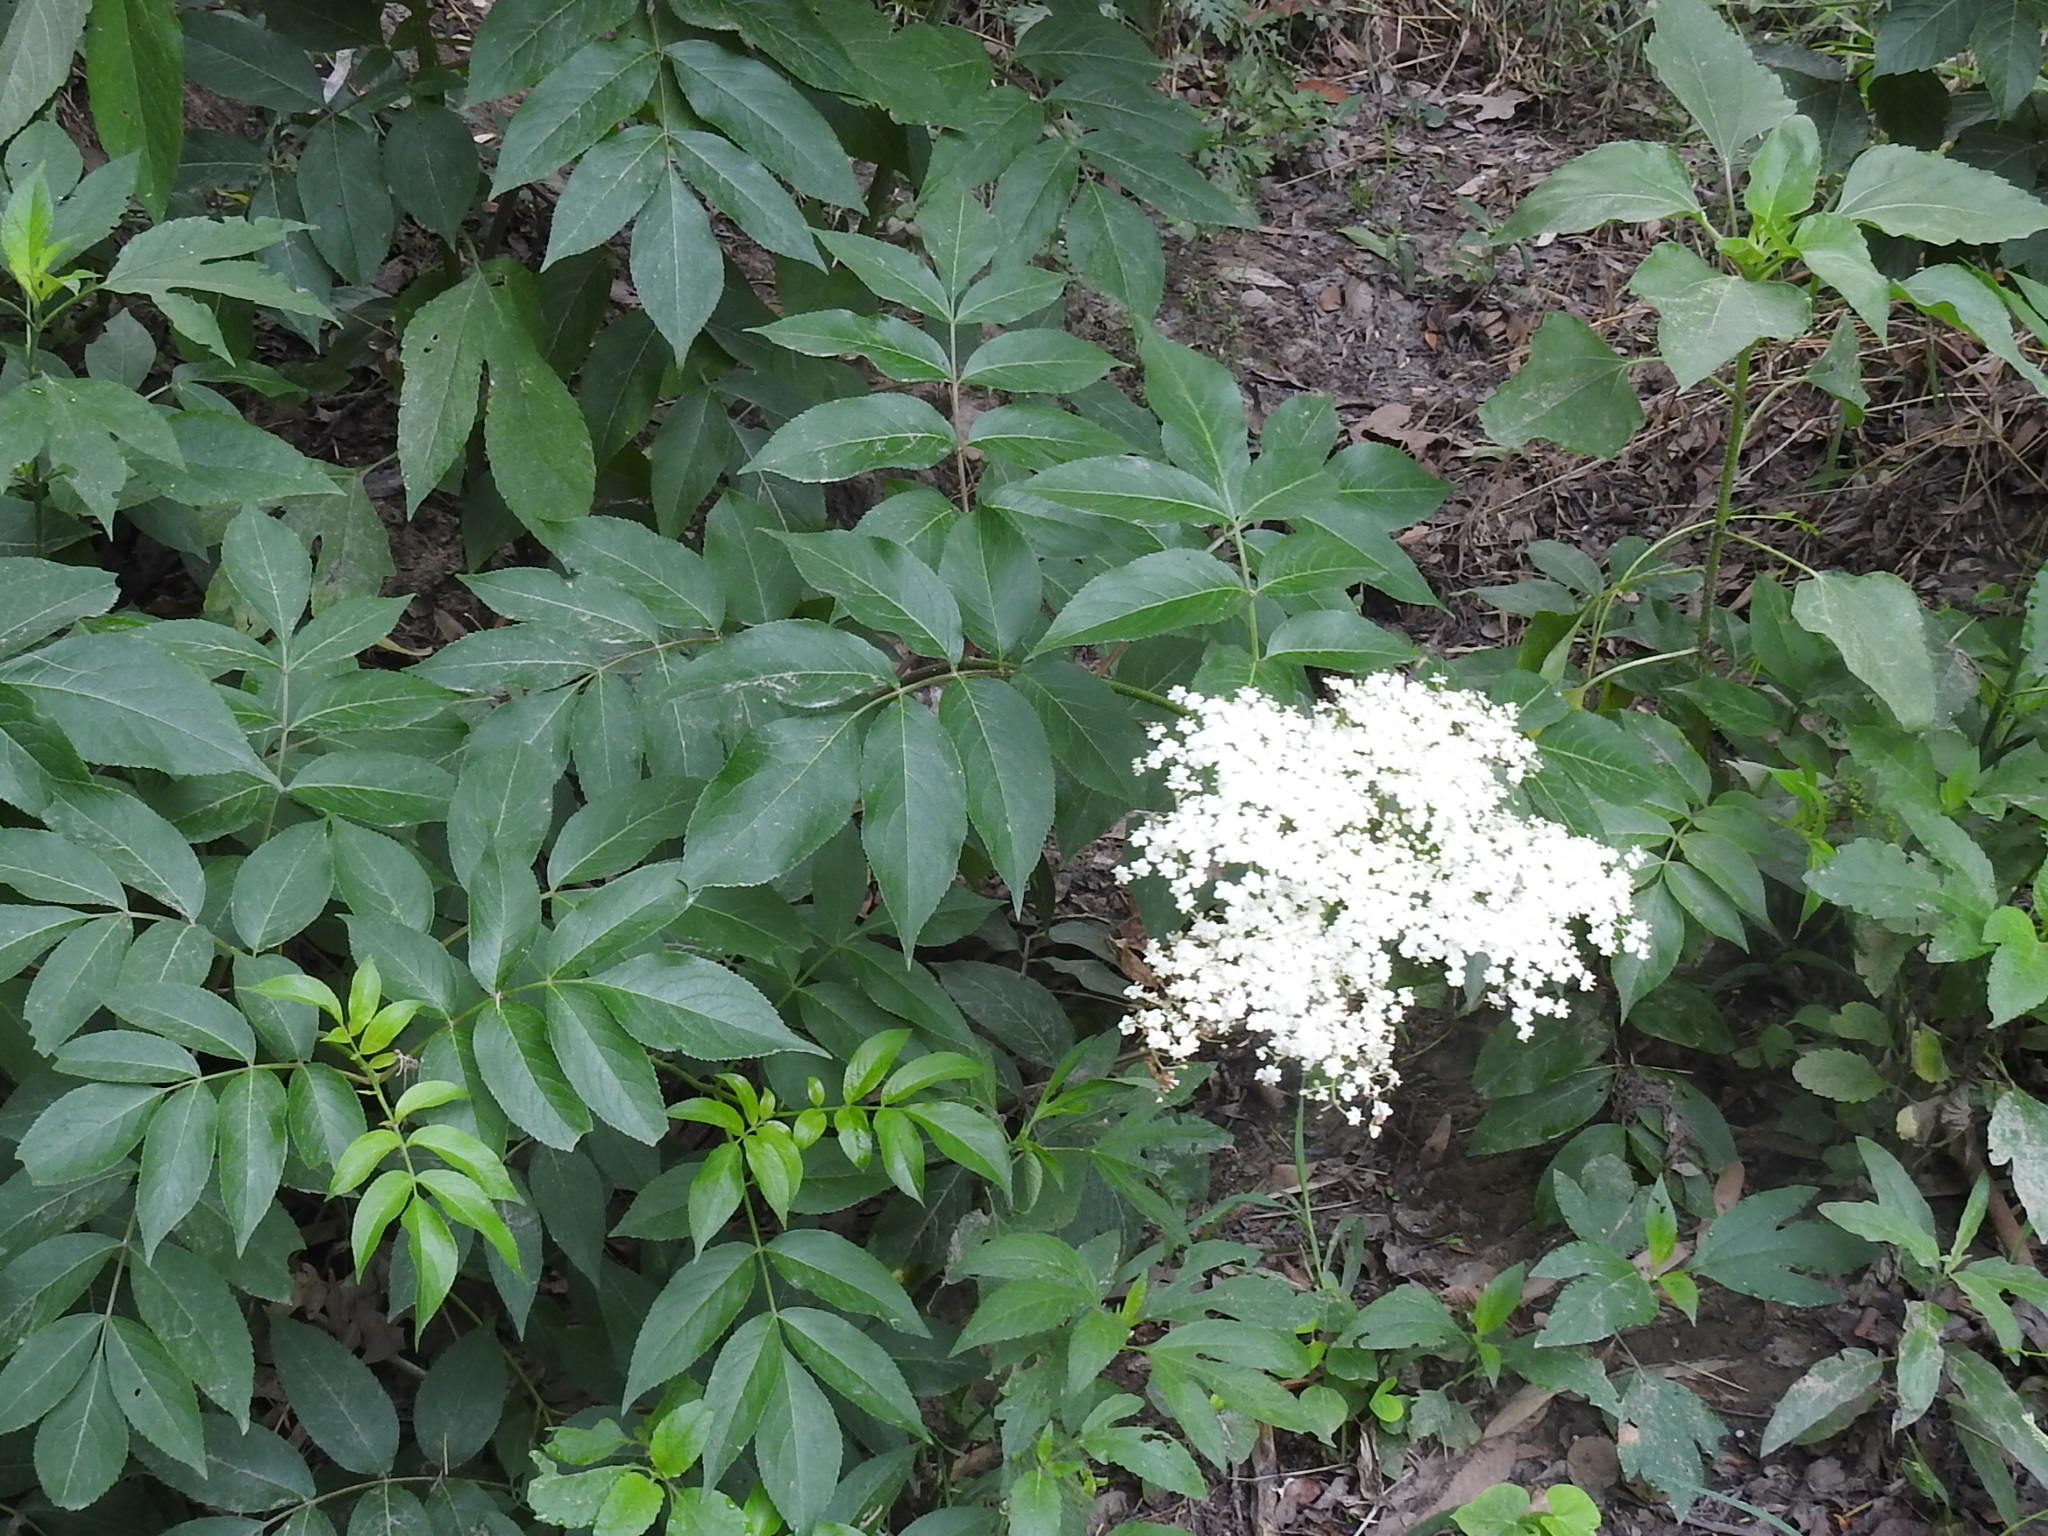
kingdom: Plantae
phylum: Tracheophyta
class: Magnoliopsida
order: Dipsacales
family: Viburnaceae
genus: Sambucus
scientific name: Sambucus canadensis
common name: American elder
